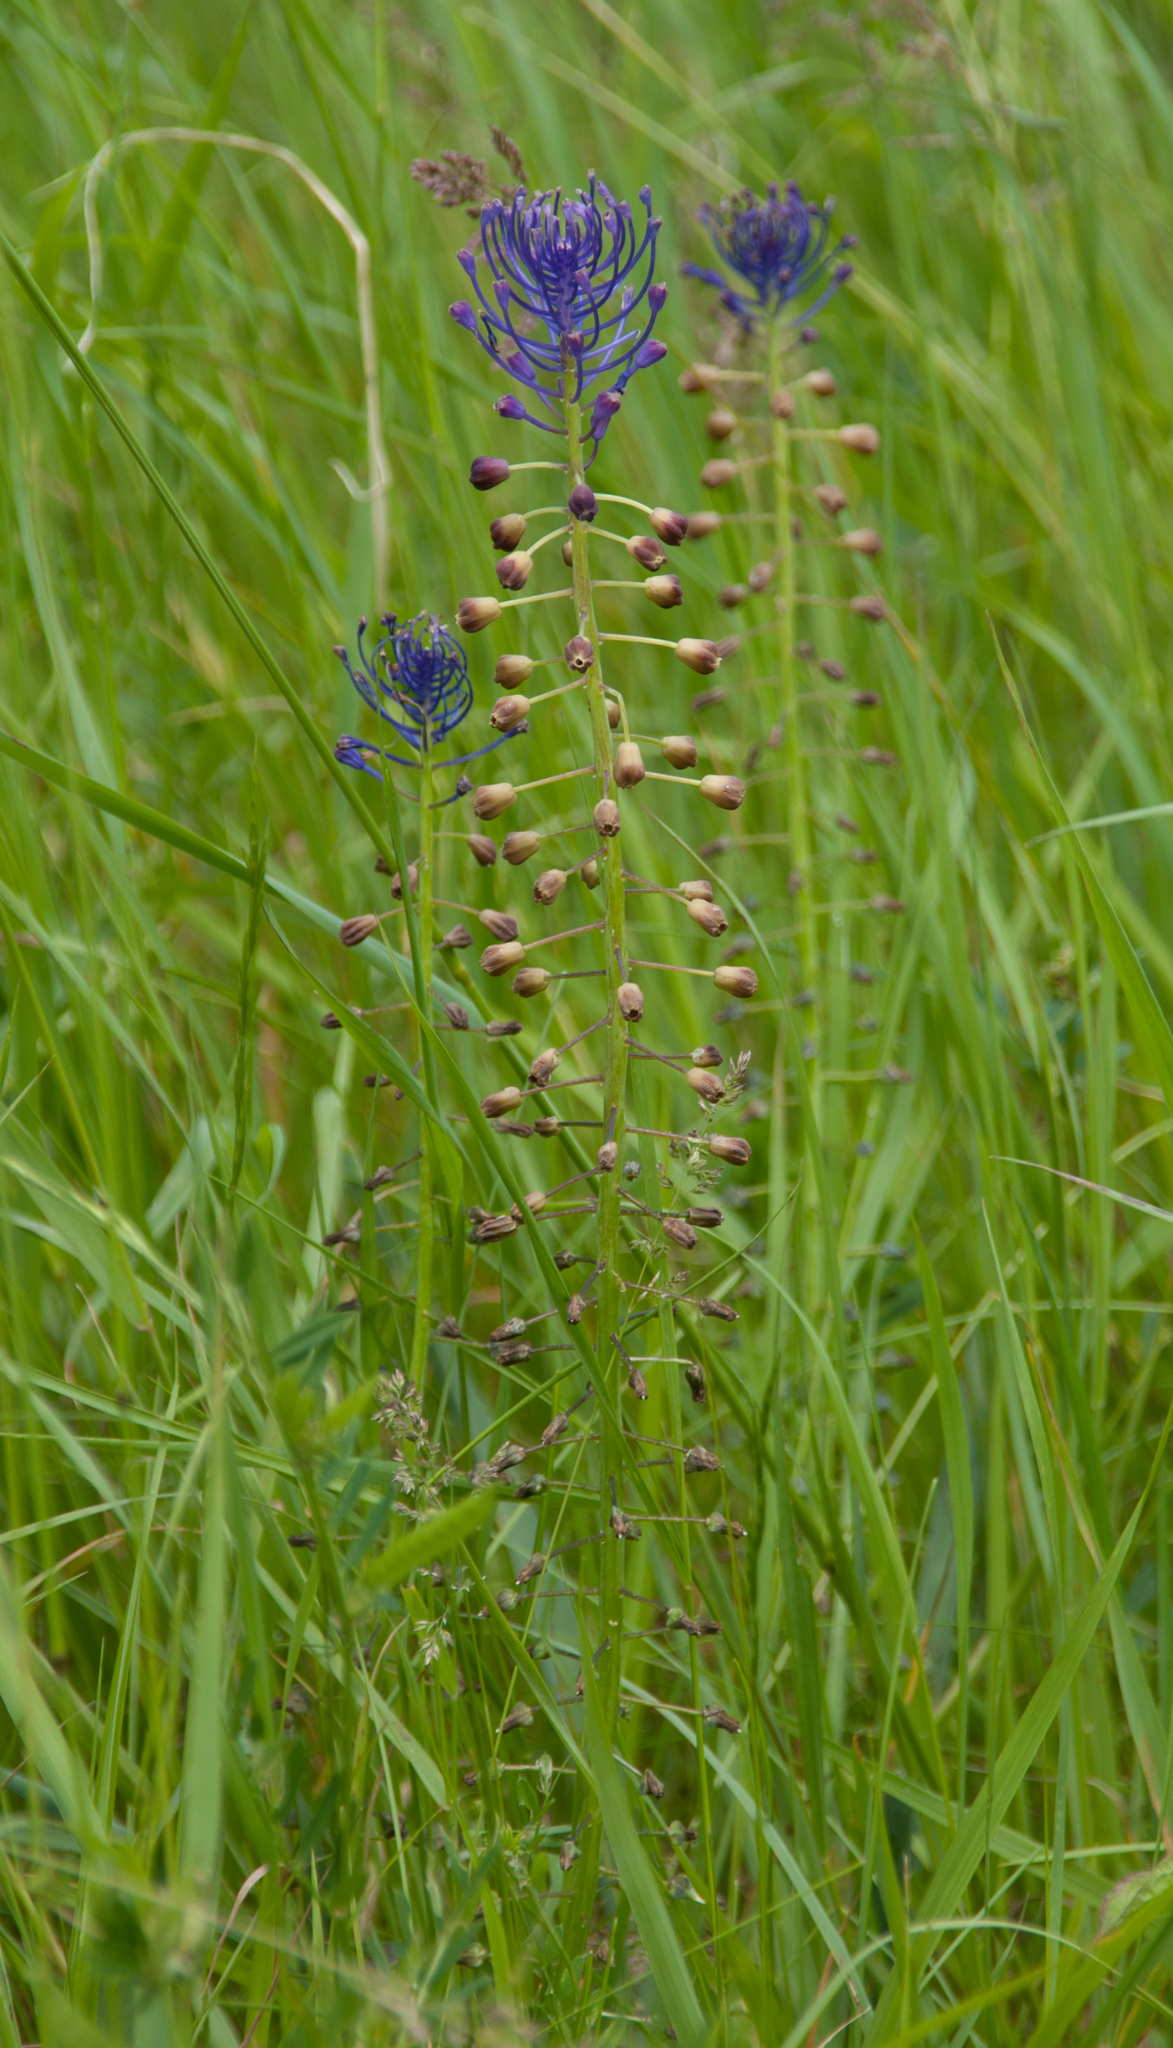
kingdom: Plantae
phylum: Tracheophyta
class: Liliopsida
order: Asparagales
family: Asparagaceae
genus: Muscari
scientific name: Muscari comosum
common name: Tassel hyacinth
